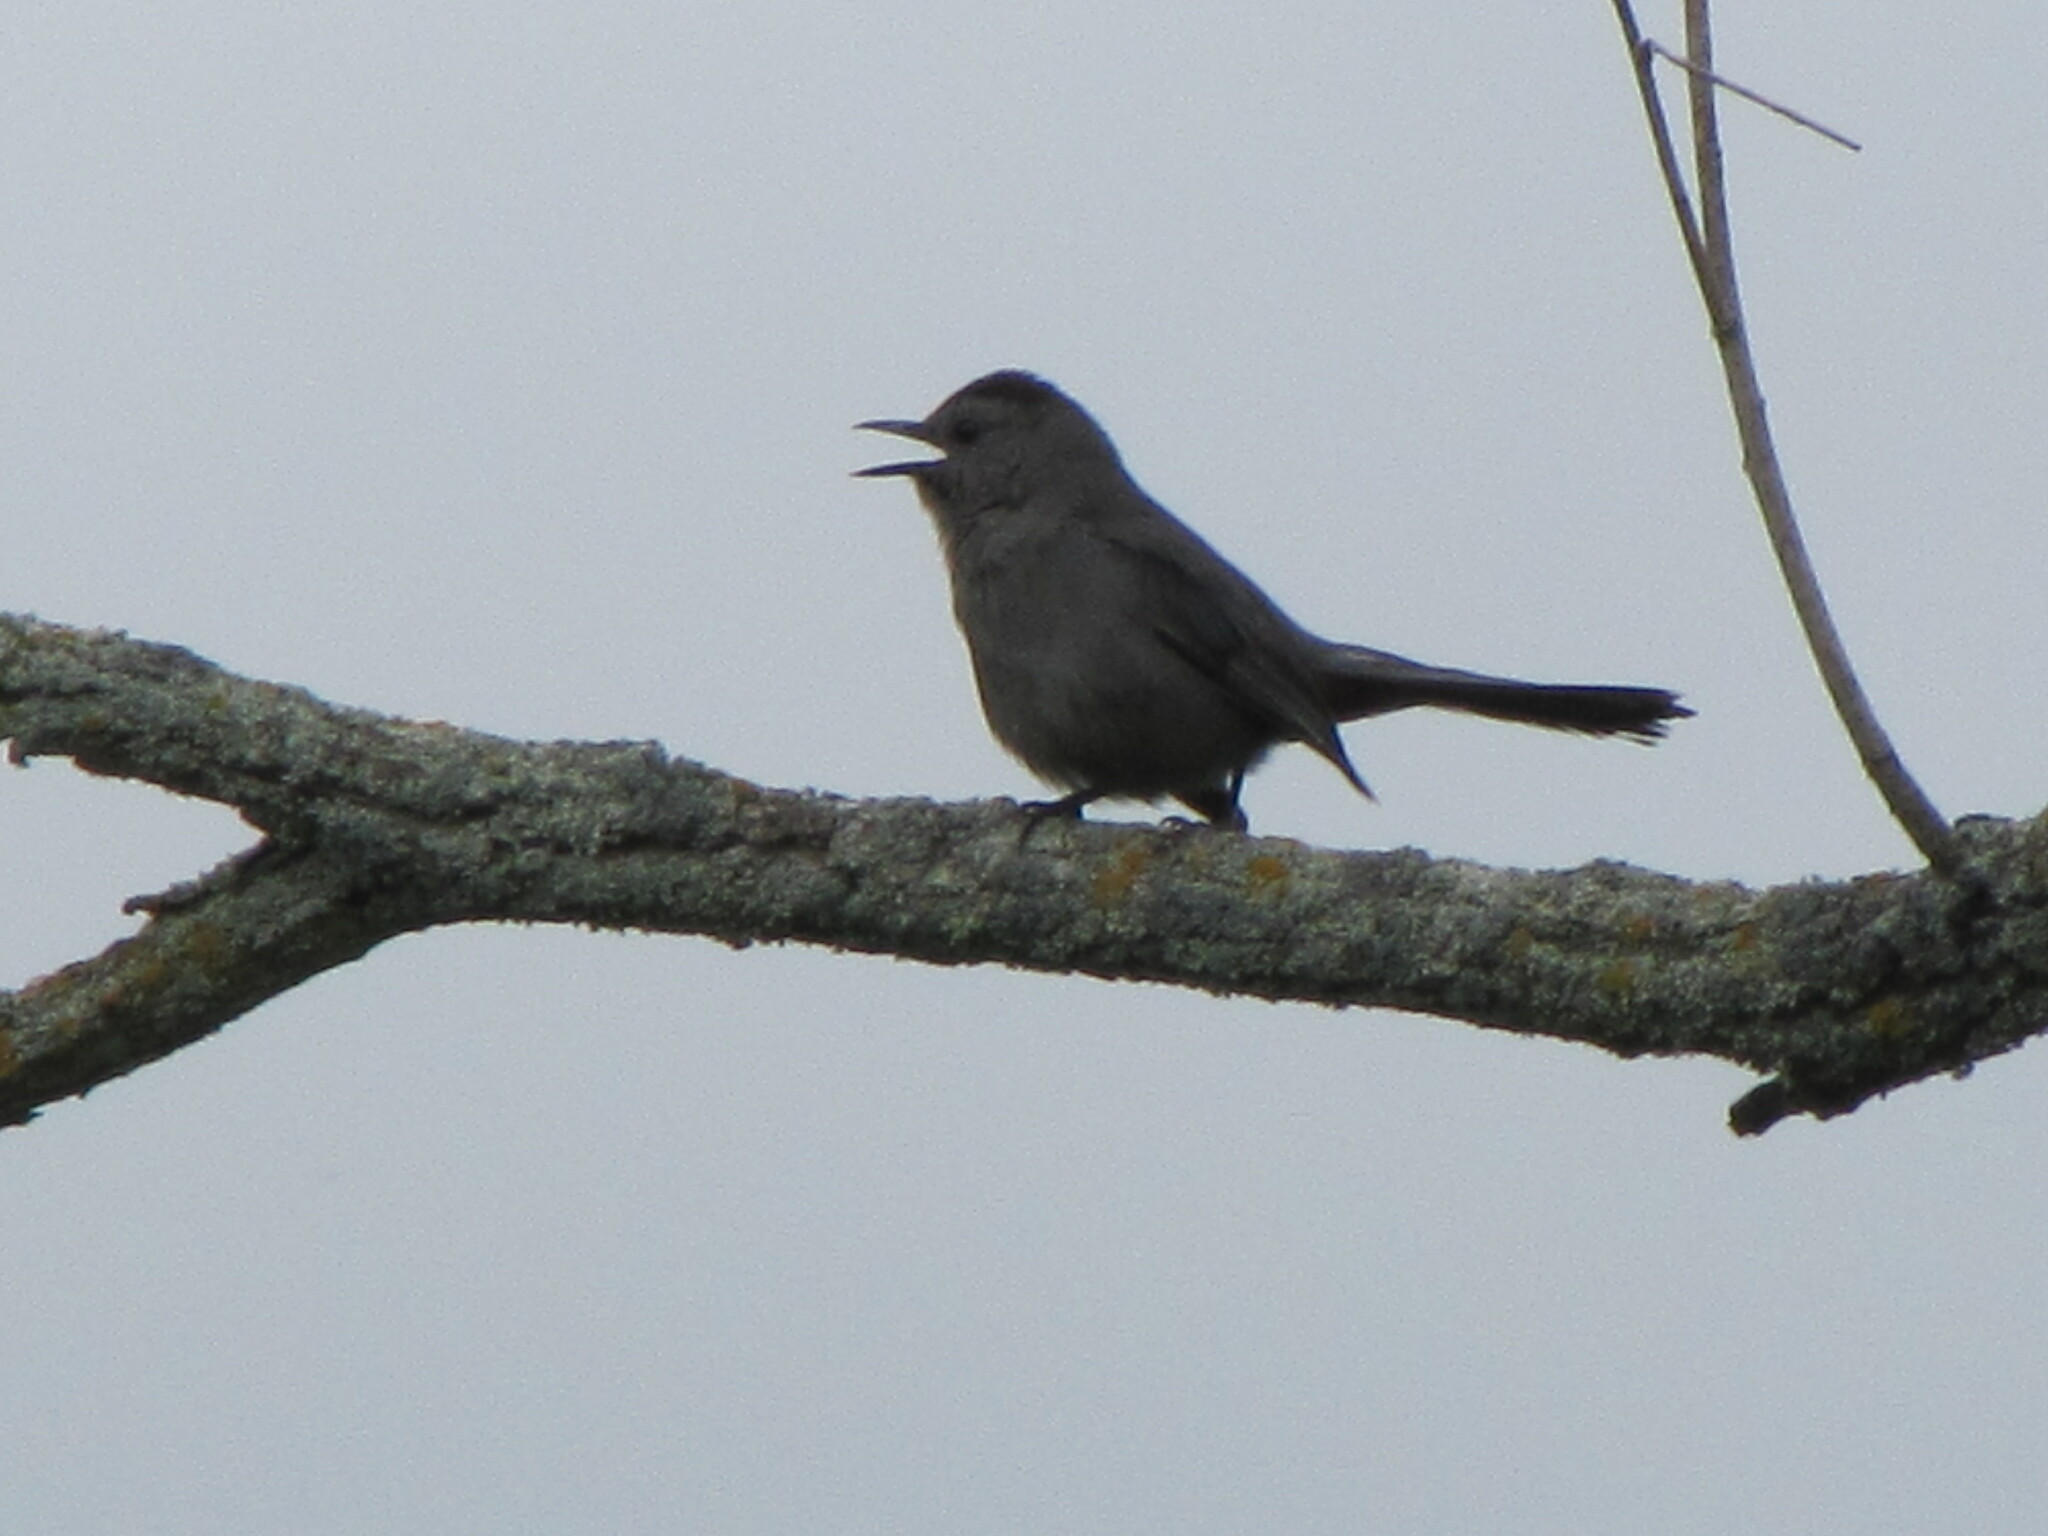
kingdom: Animalia
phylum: Chordata
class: Aves
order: Passeriformes
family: Mimidae
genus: Dumetella
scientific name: Dumetella carolinensis
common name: Gray catbird
